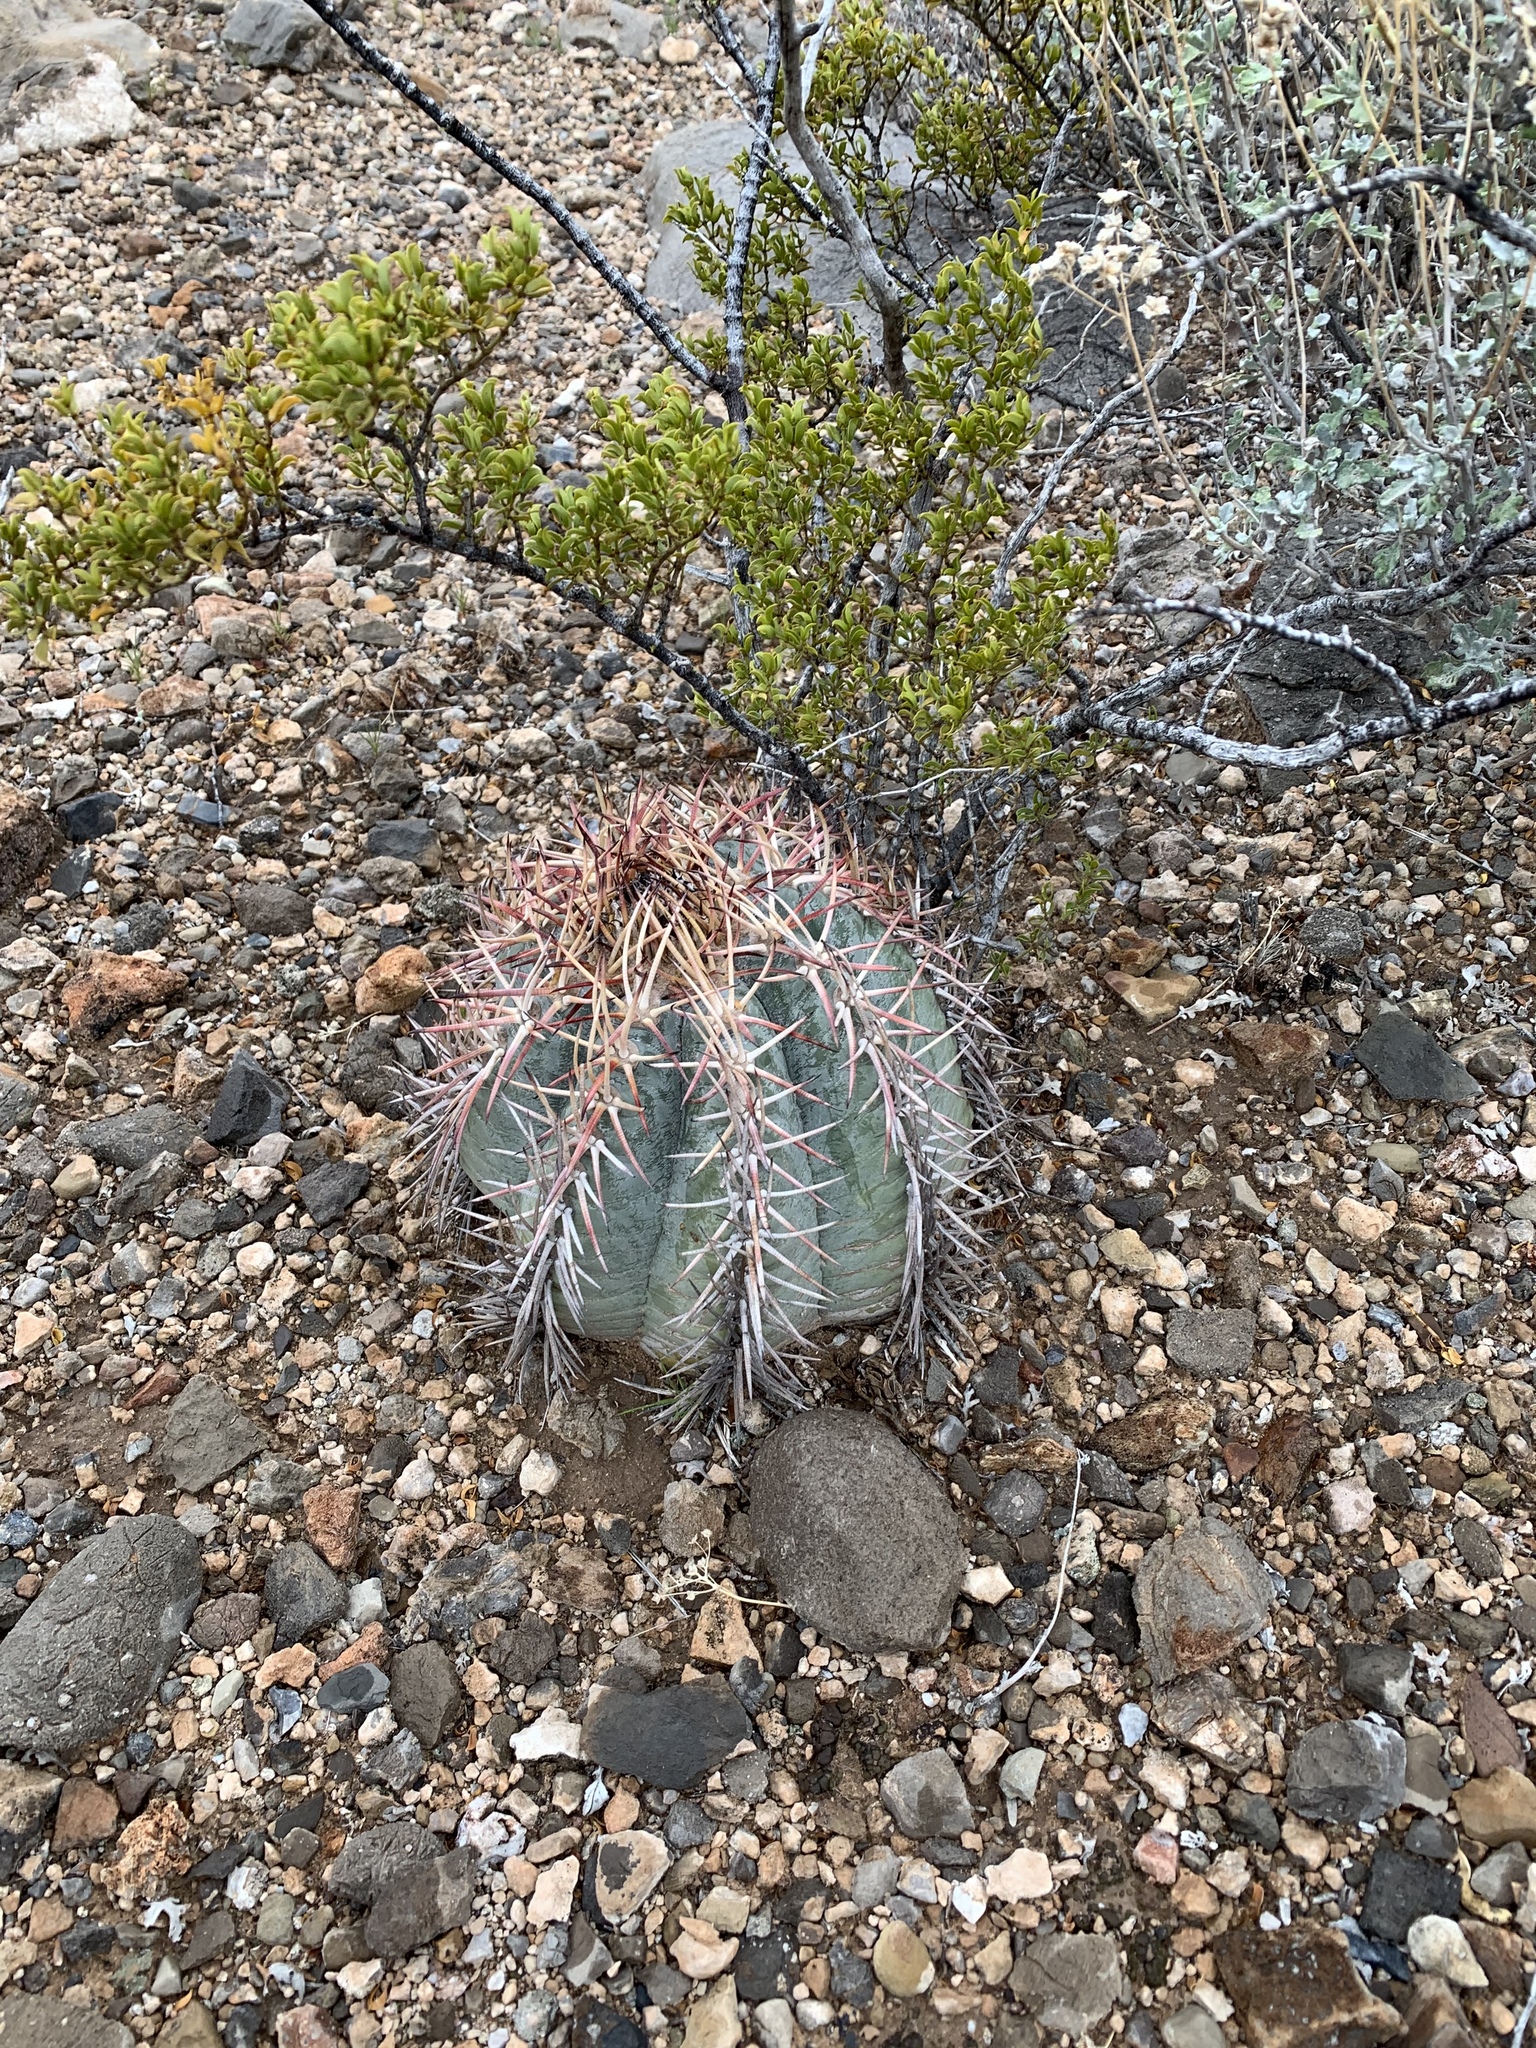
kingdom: Plantae
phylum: Tracheophyta
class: Magnoliopsida
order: Caryophyllales
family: Cactaceae
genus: Echinocactus
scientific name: Echinocactus horizonthalonius
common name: Devilshead
